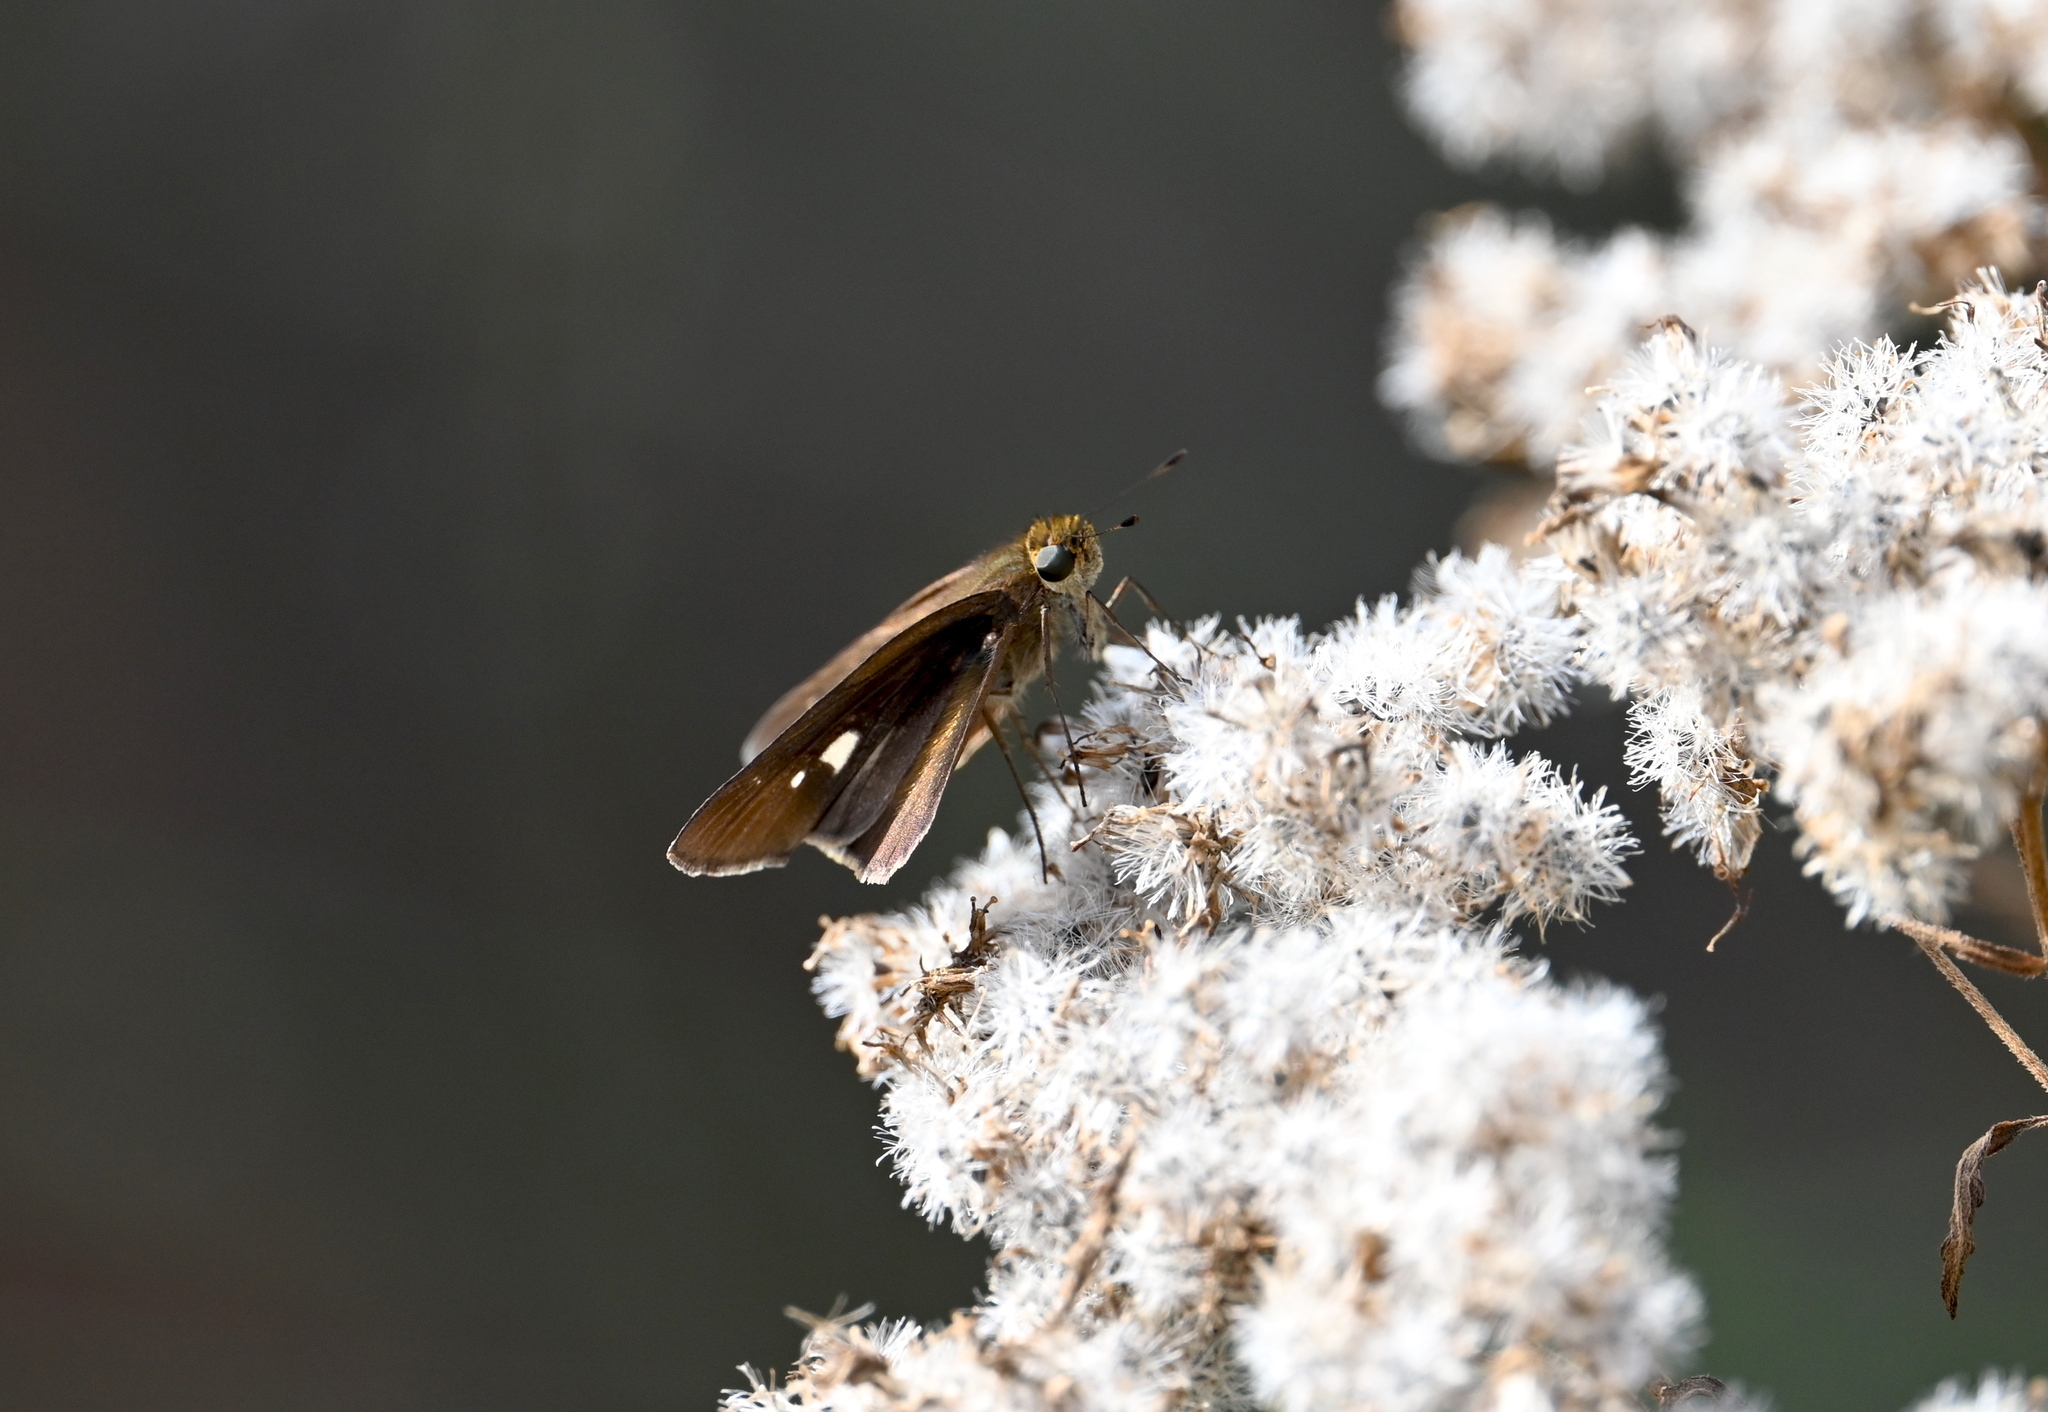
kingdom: Animalia
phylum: Arthropoda
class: Insecta
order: Lepidoptera
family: Hesperiidae
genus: Panoquina
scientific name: Panoquina ocola
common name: Ocola skipper
